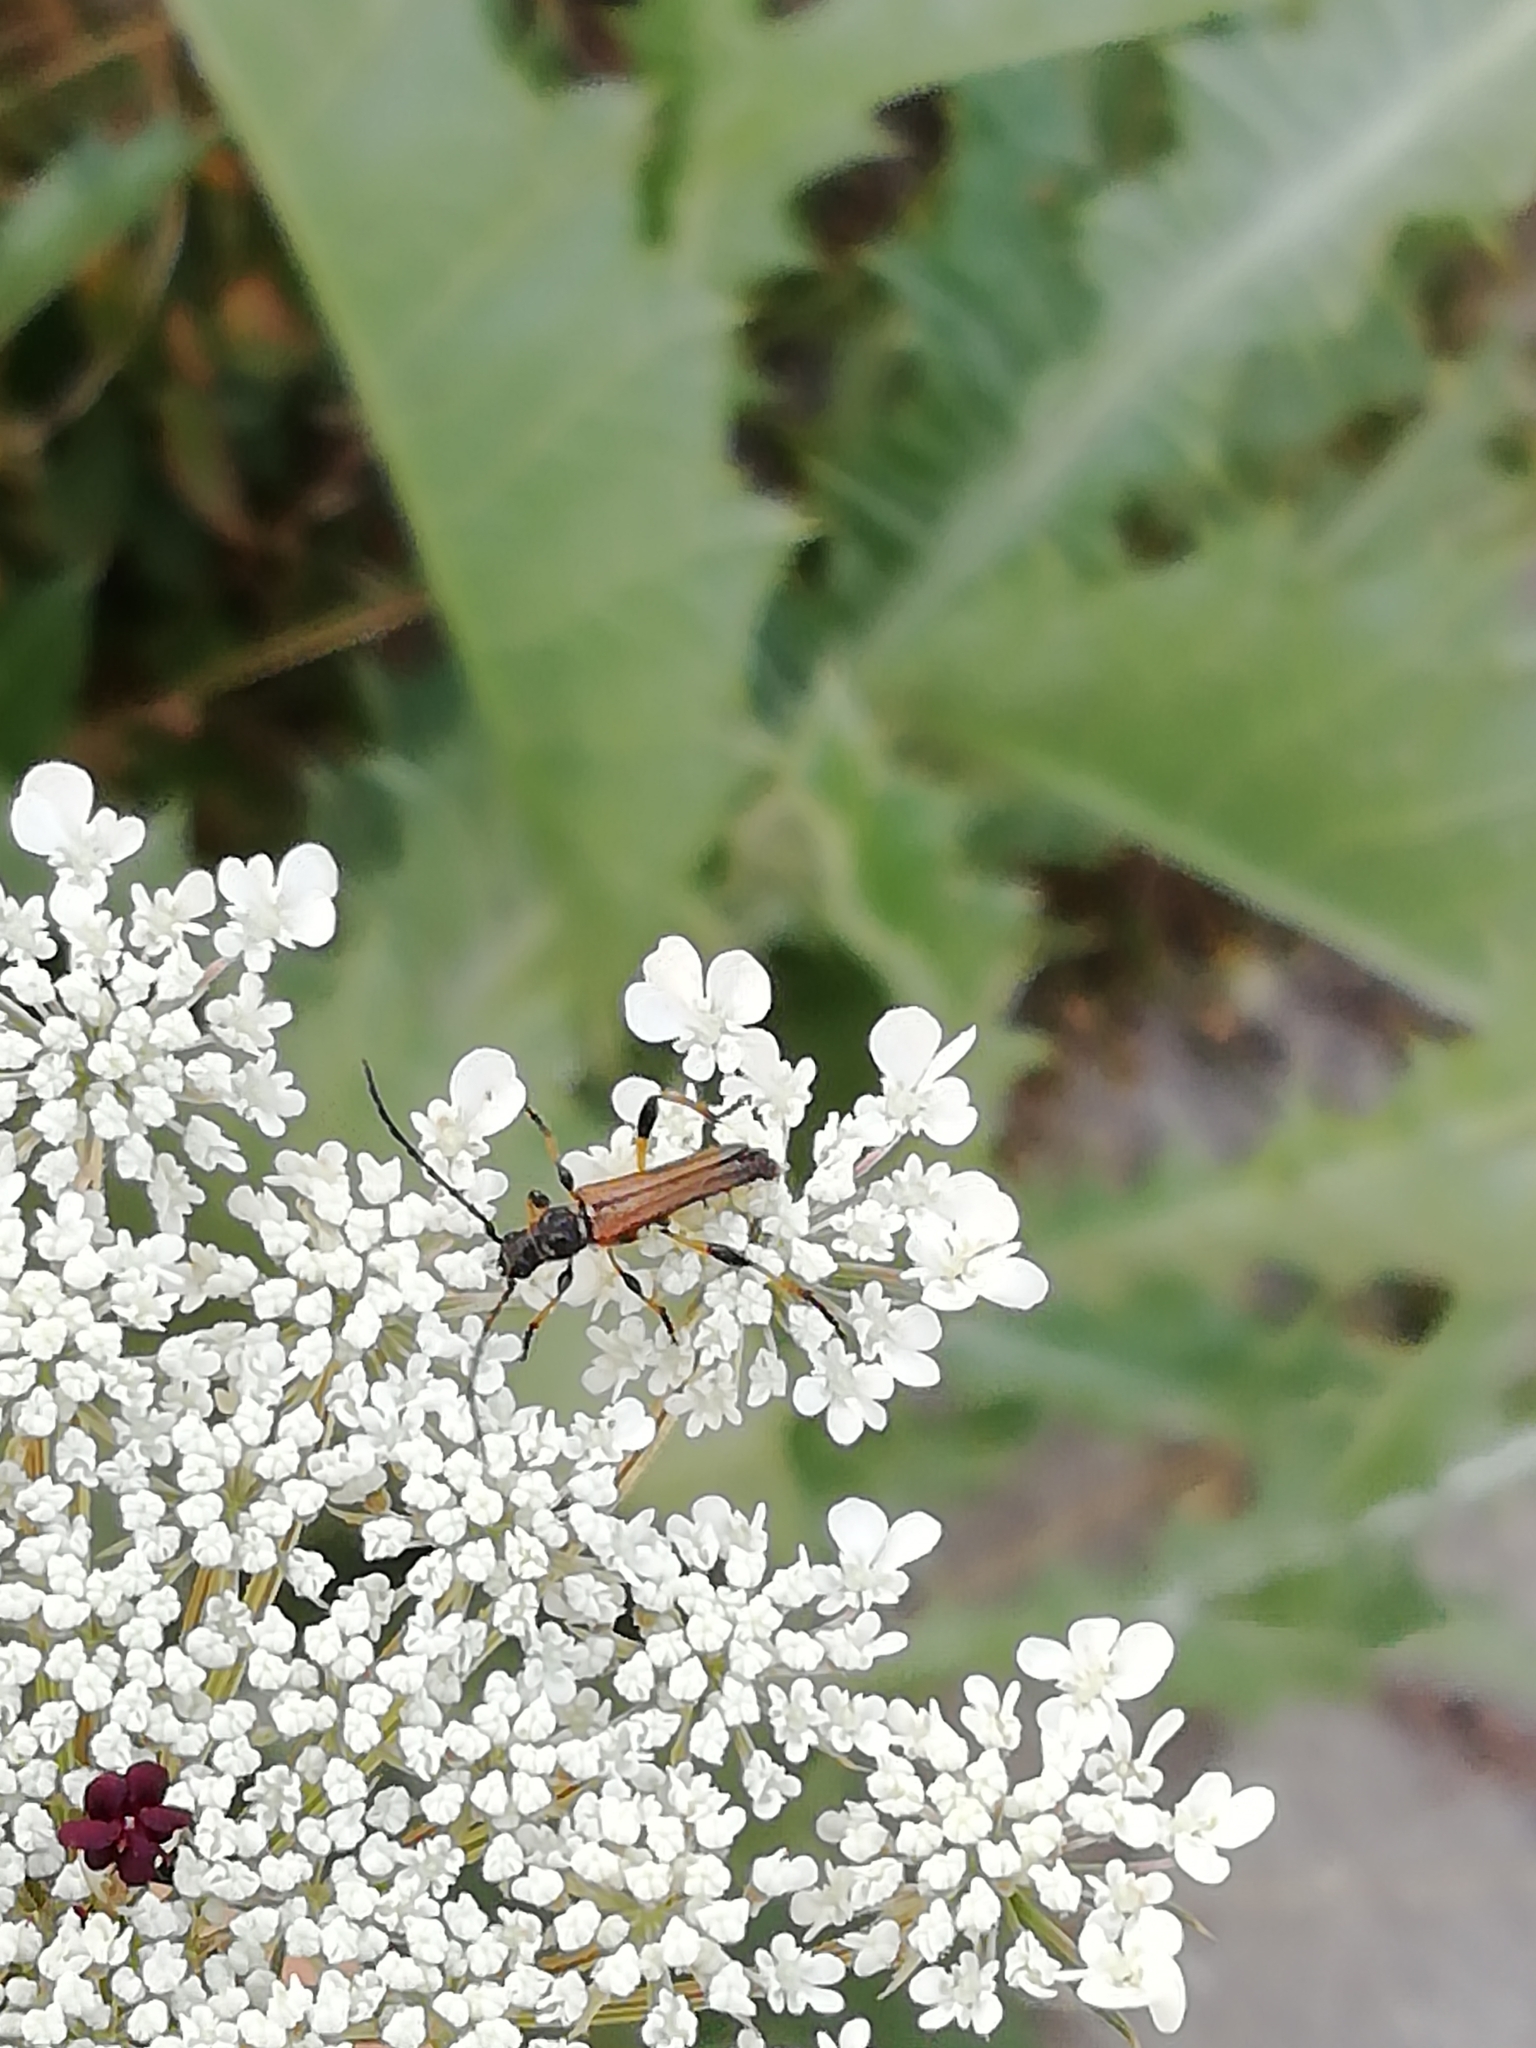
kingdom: Animalia
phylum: Arthropoda
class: Insecta
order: Coleoptera
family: Cerambycidae
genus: Stenopterus
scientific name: Stenopterus ater
